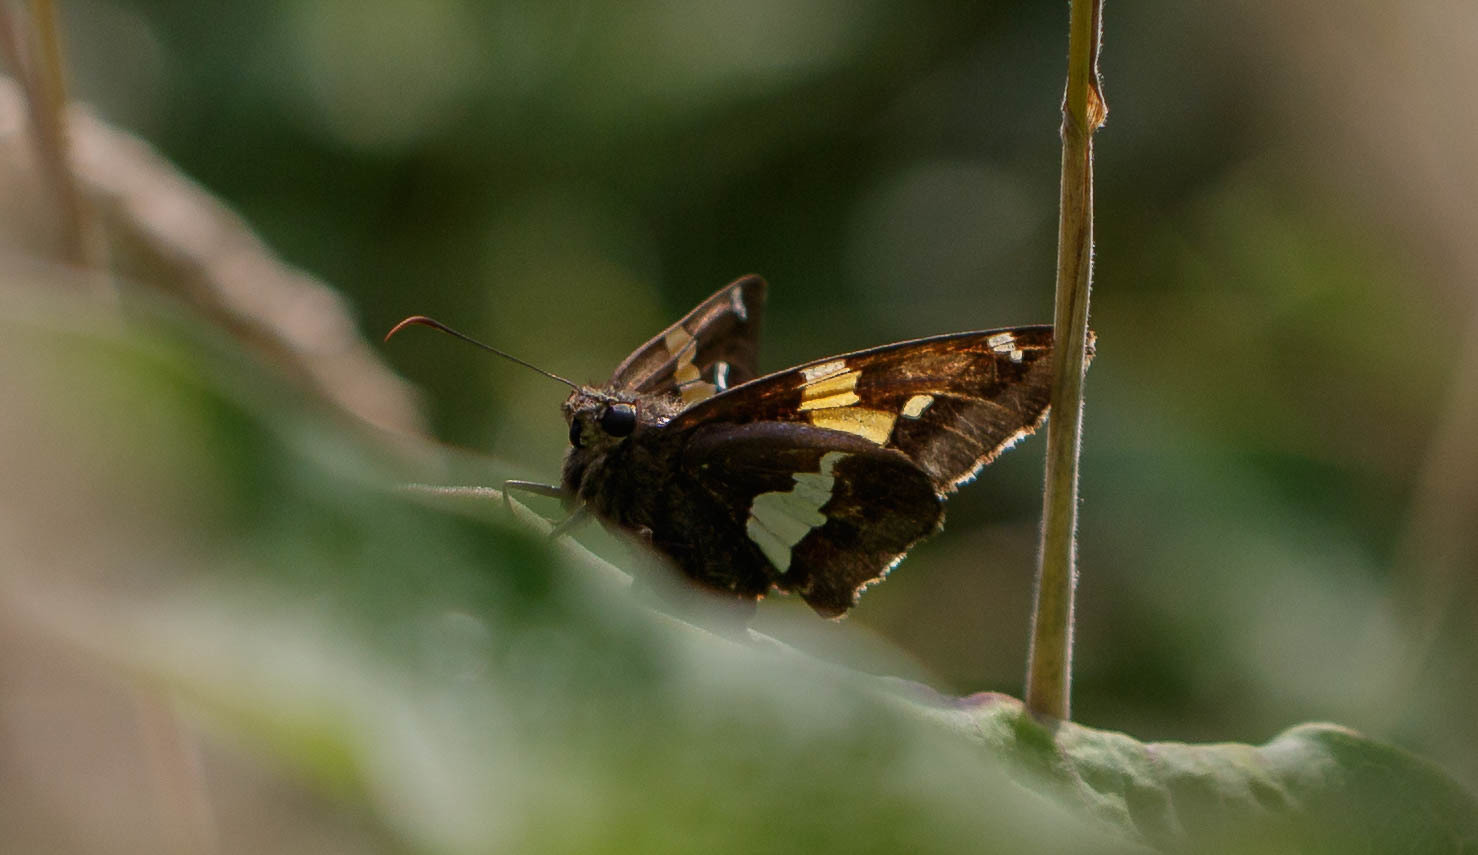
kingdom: Animalia
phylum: Arthropoda
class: Insecta
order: Lepidoptera
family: Hesperiidae
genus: Epargyreus
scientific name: Epargyreus clarus
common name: Silver-spotted skipper
